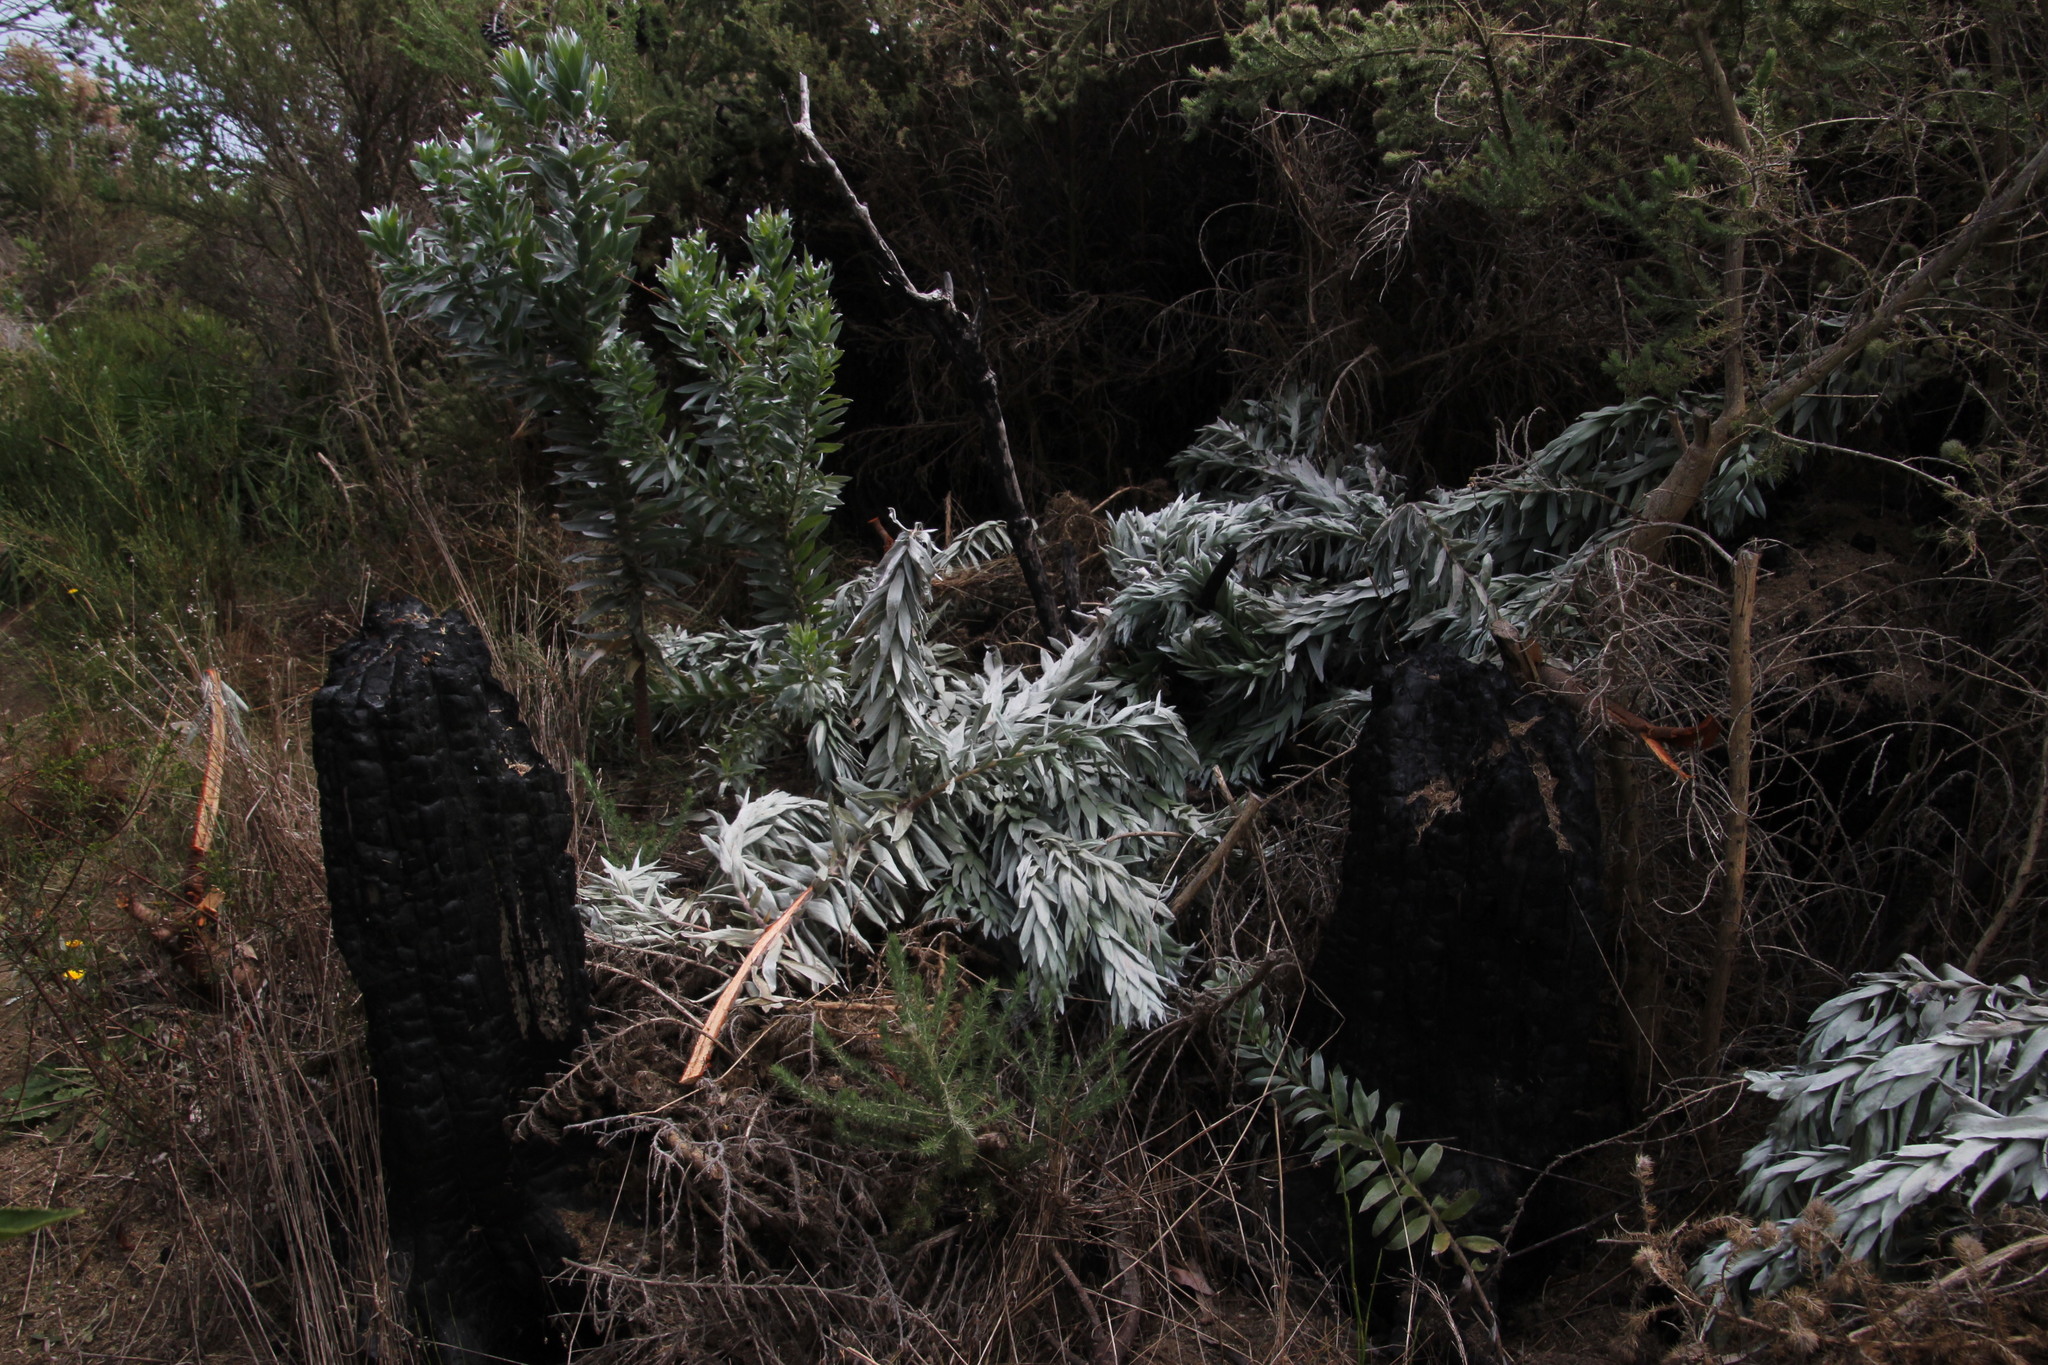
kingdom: Plantae
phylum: Tracheophyta
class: Magnoliopsida
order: Proteales
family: Proteaceae
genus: Leucadendron
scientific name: Leucadendron argenteum
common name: Cape silver tree
